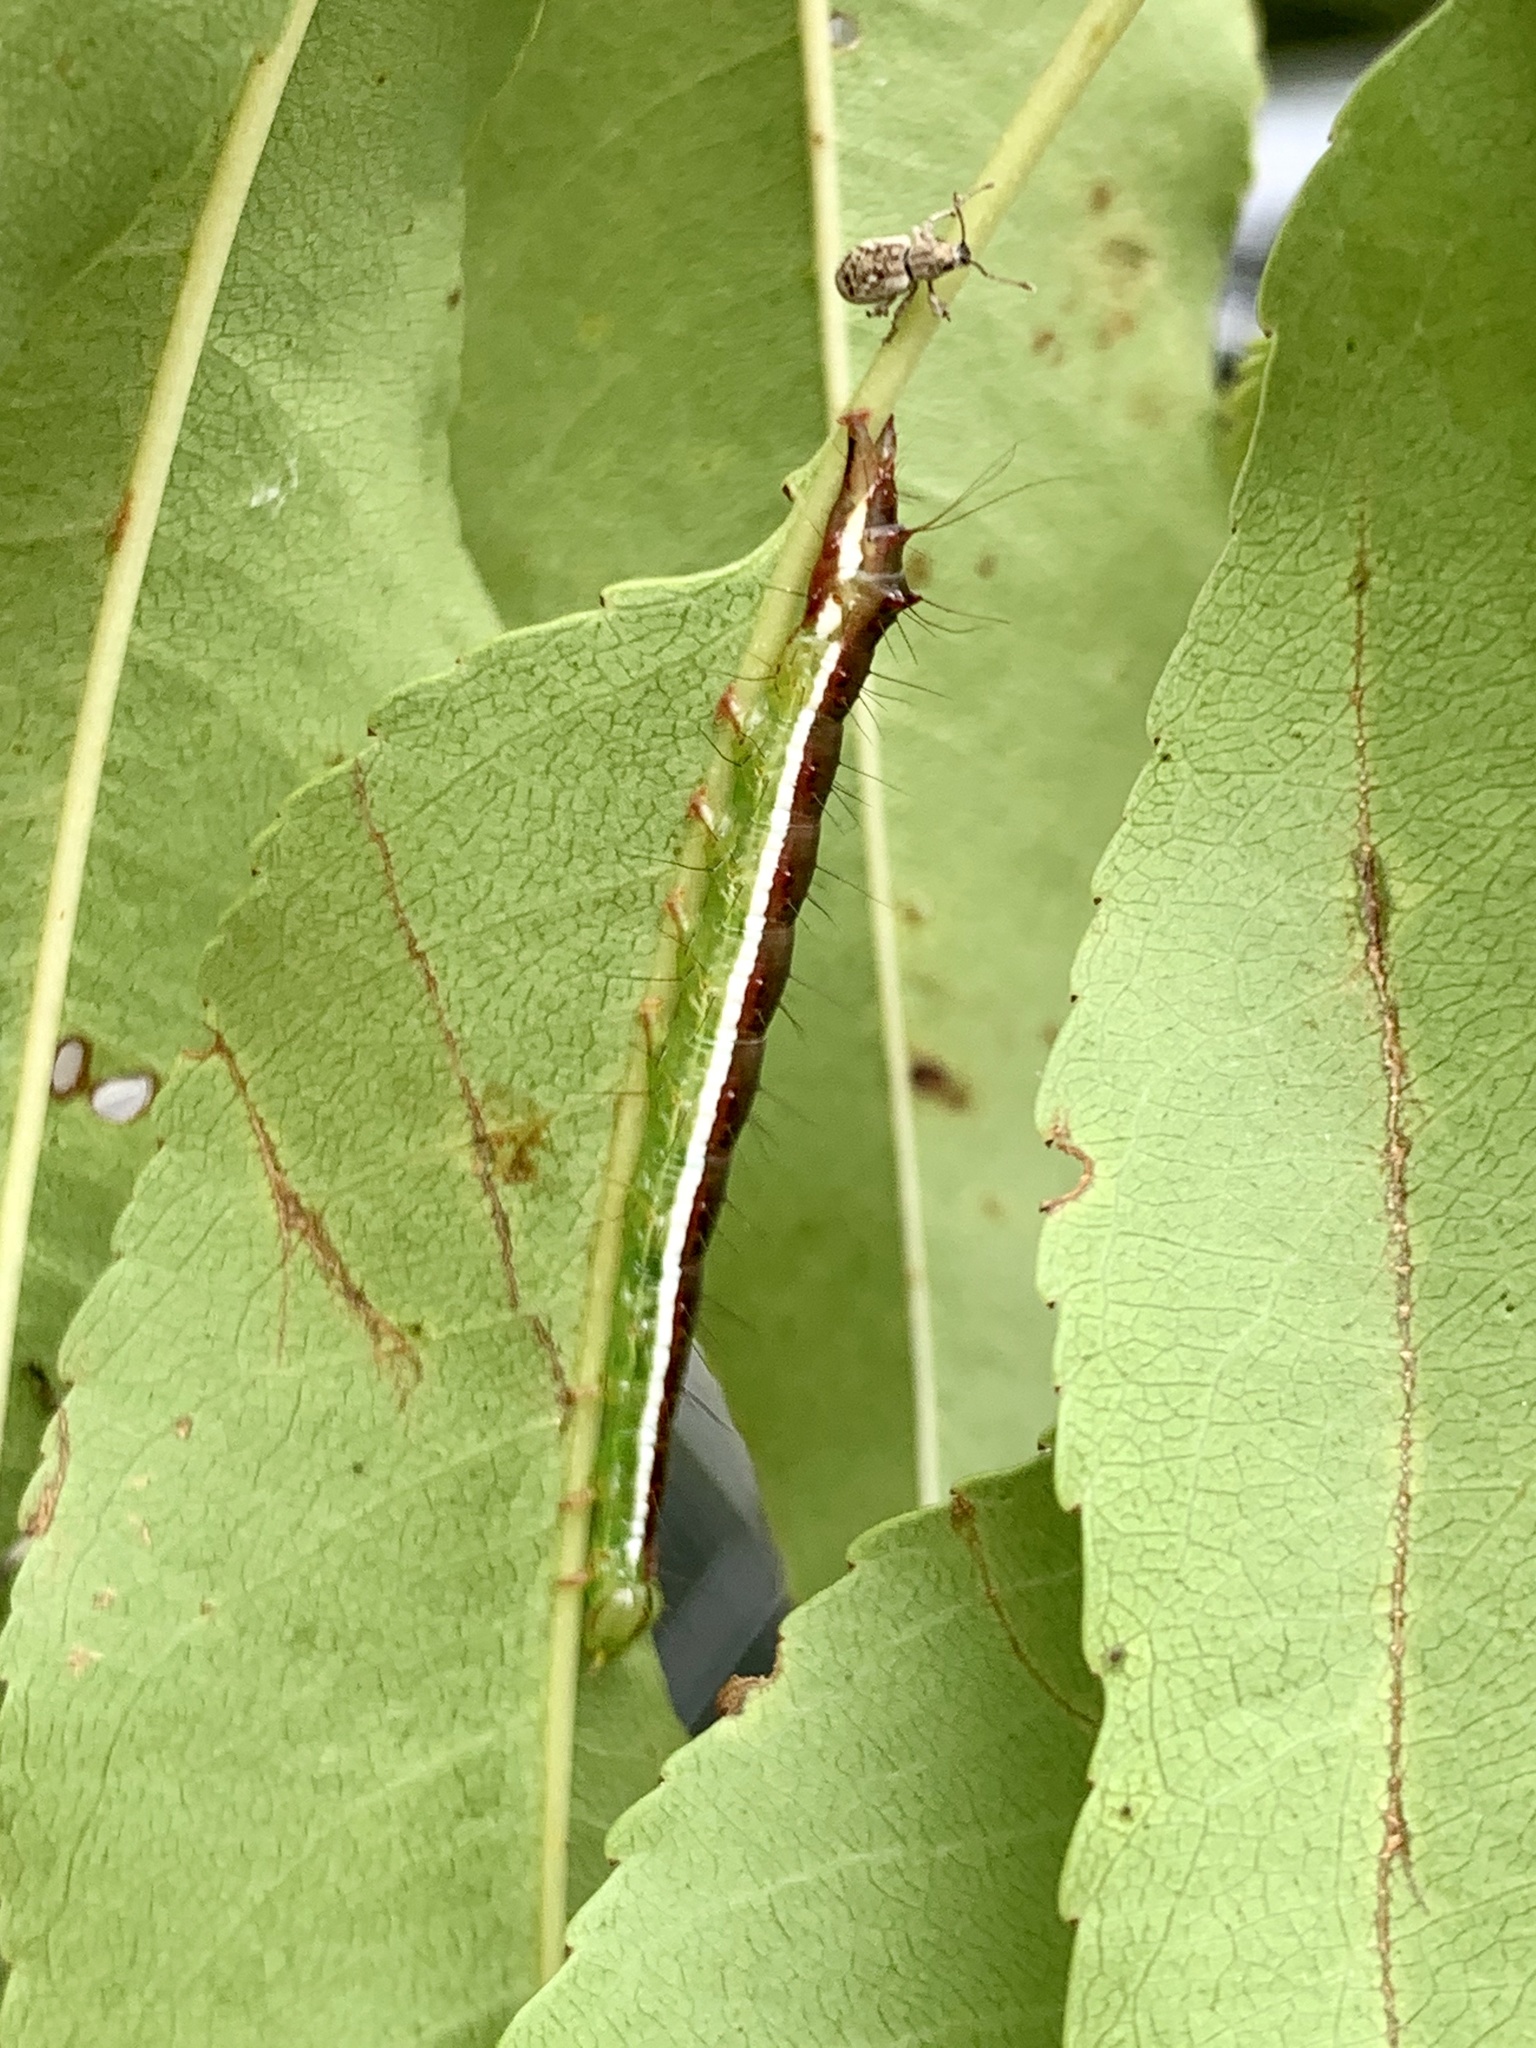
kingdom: Animalia
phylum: Arthropoda
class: Insecta
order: Lepidoptera
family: Noctuidae
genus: Cerma
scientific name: Cerma cerintha
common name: Tufted bird-dropping moth
